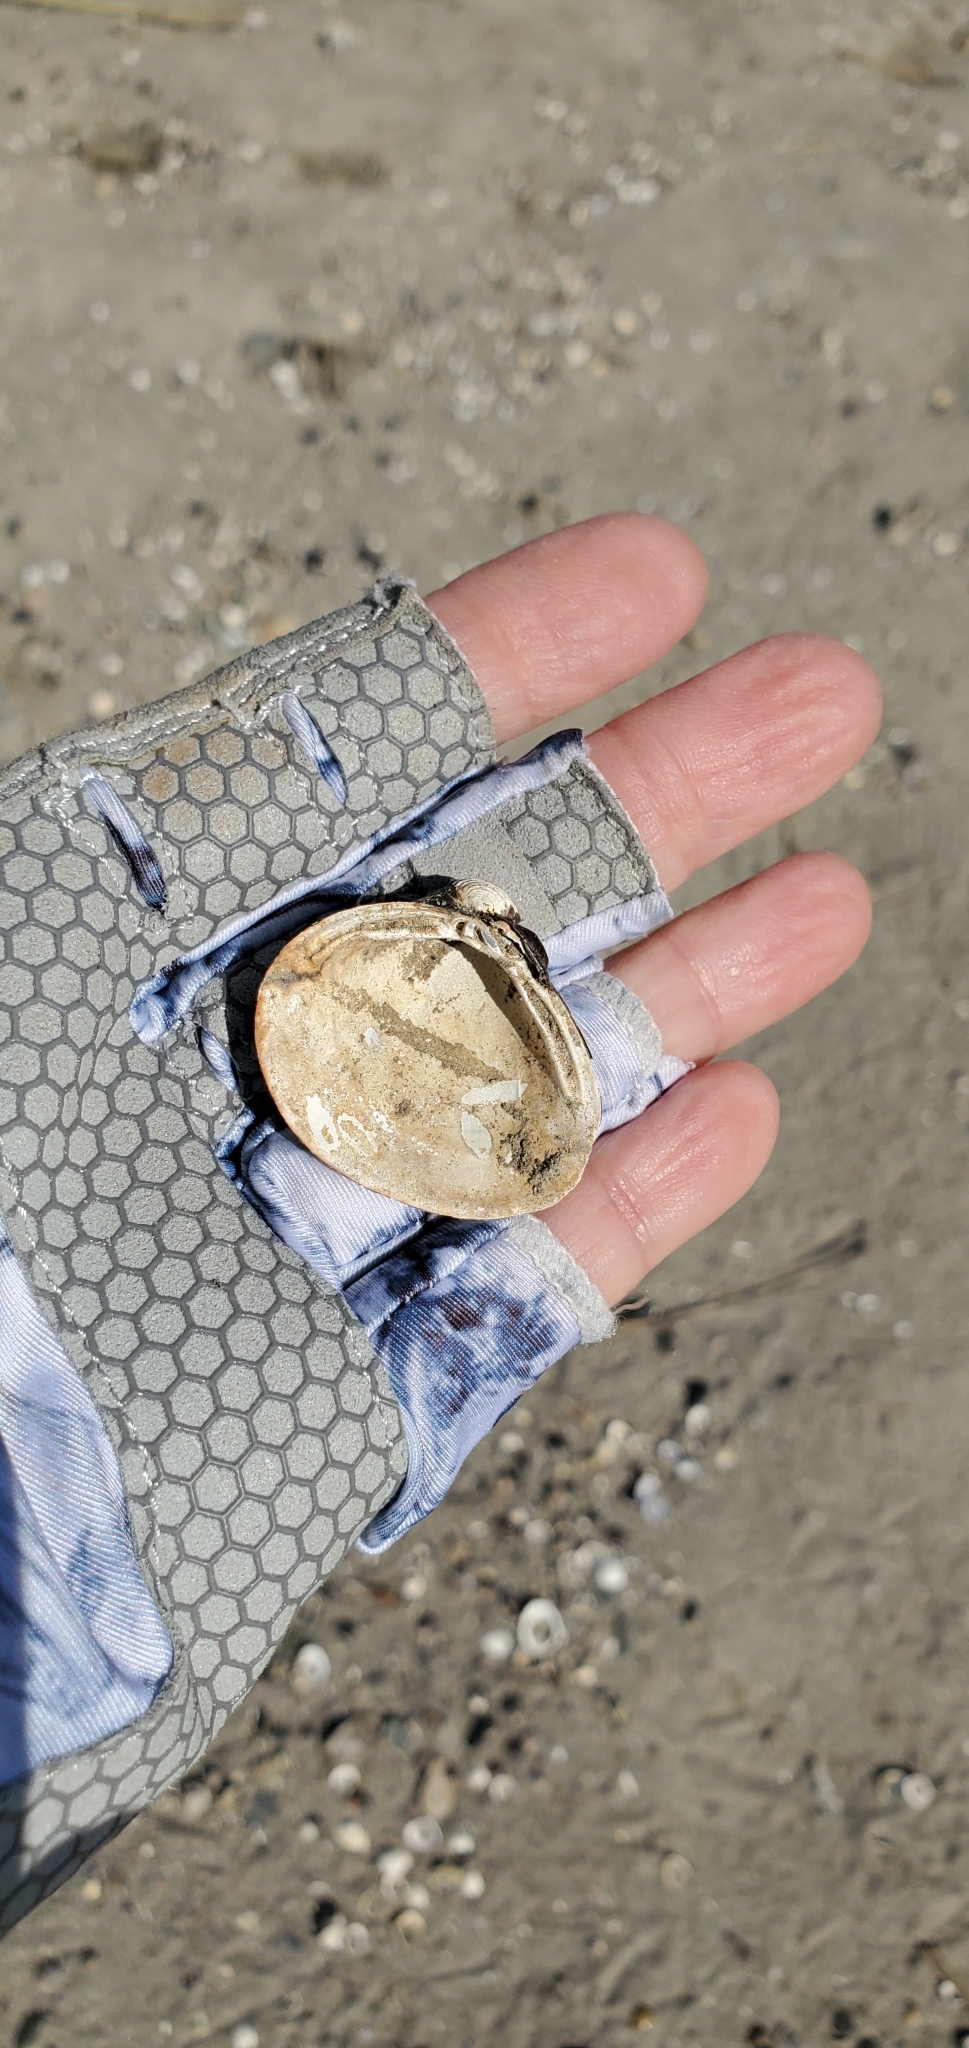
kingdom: Animalia
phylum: Mollusca
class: Bivalvia
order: Venerida
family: Cyrenidae
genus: Corbicula
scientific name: Corbicula fluminea
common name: Asian clam
